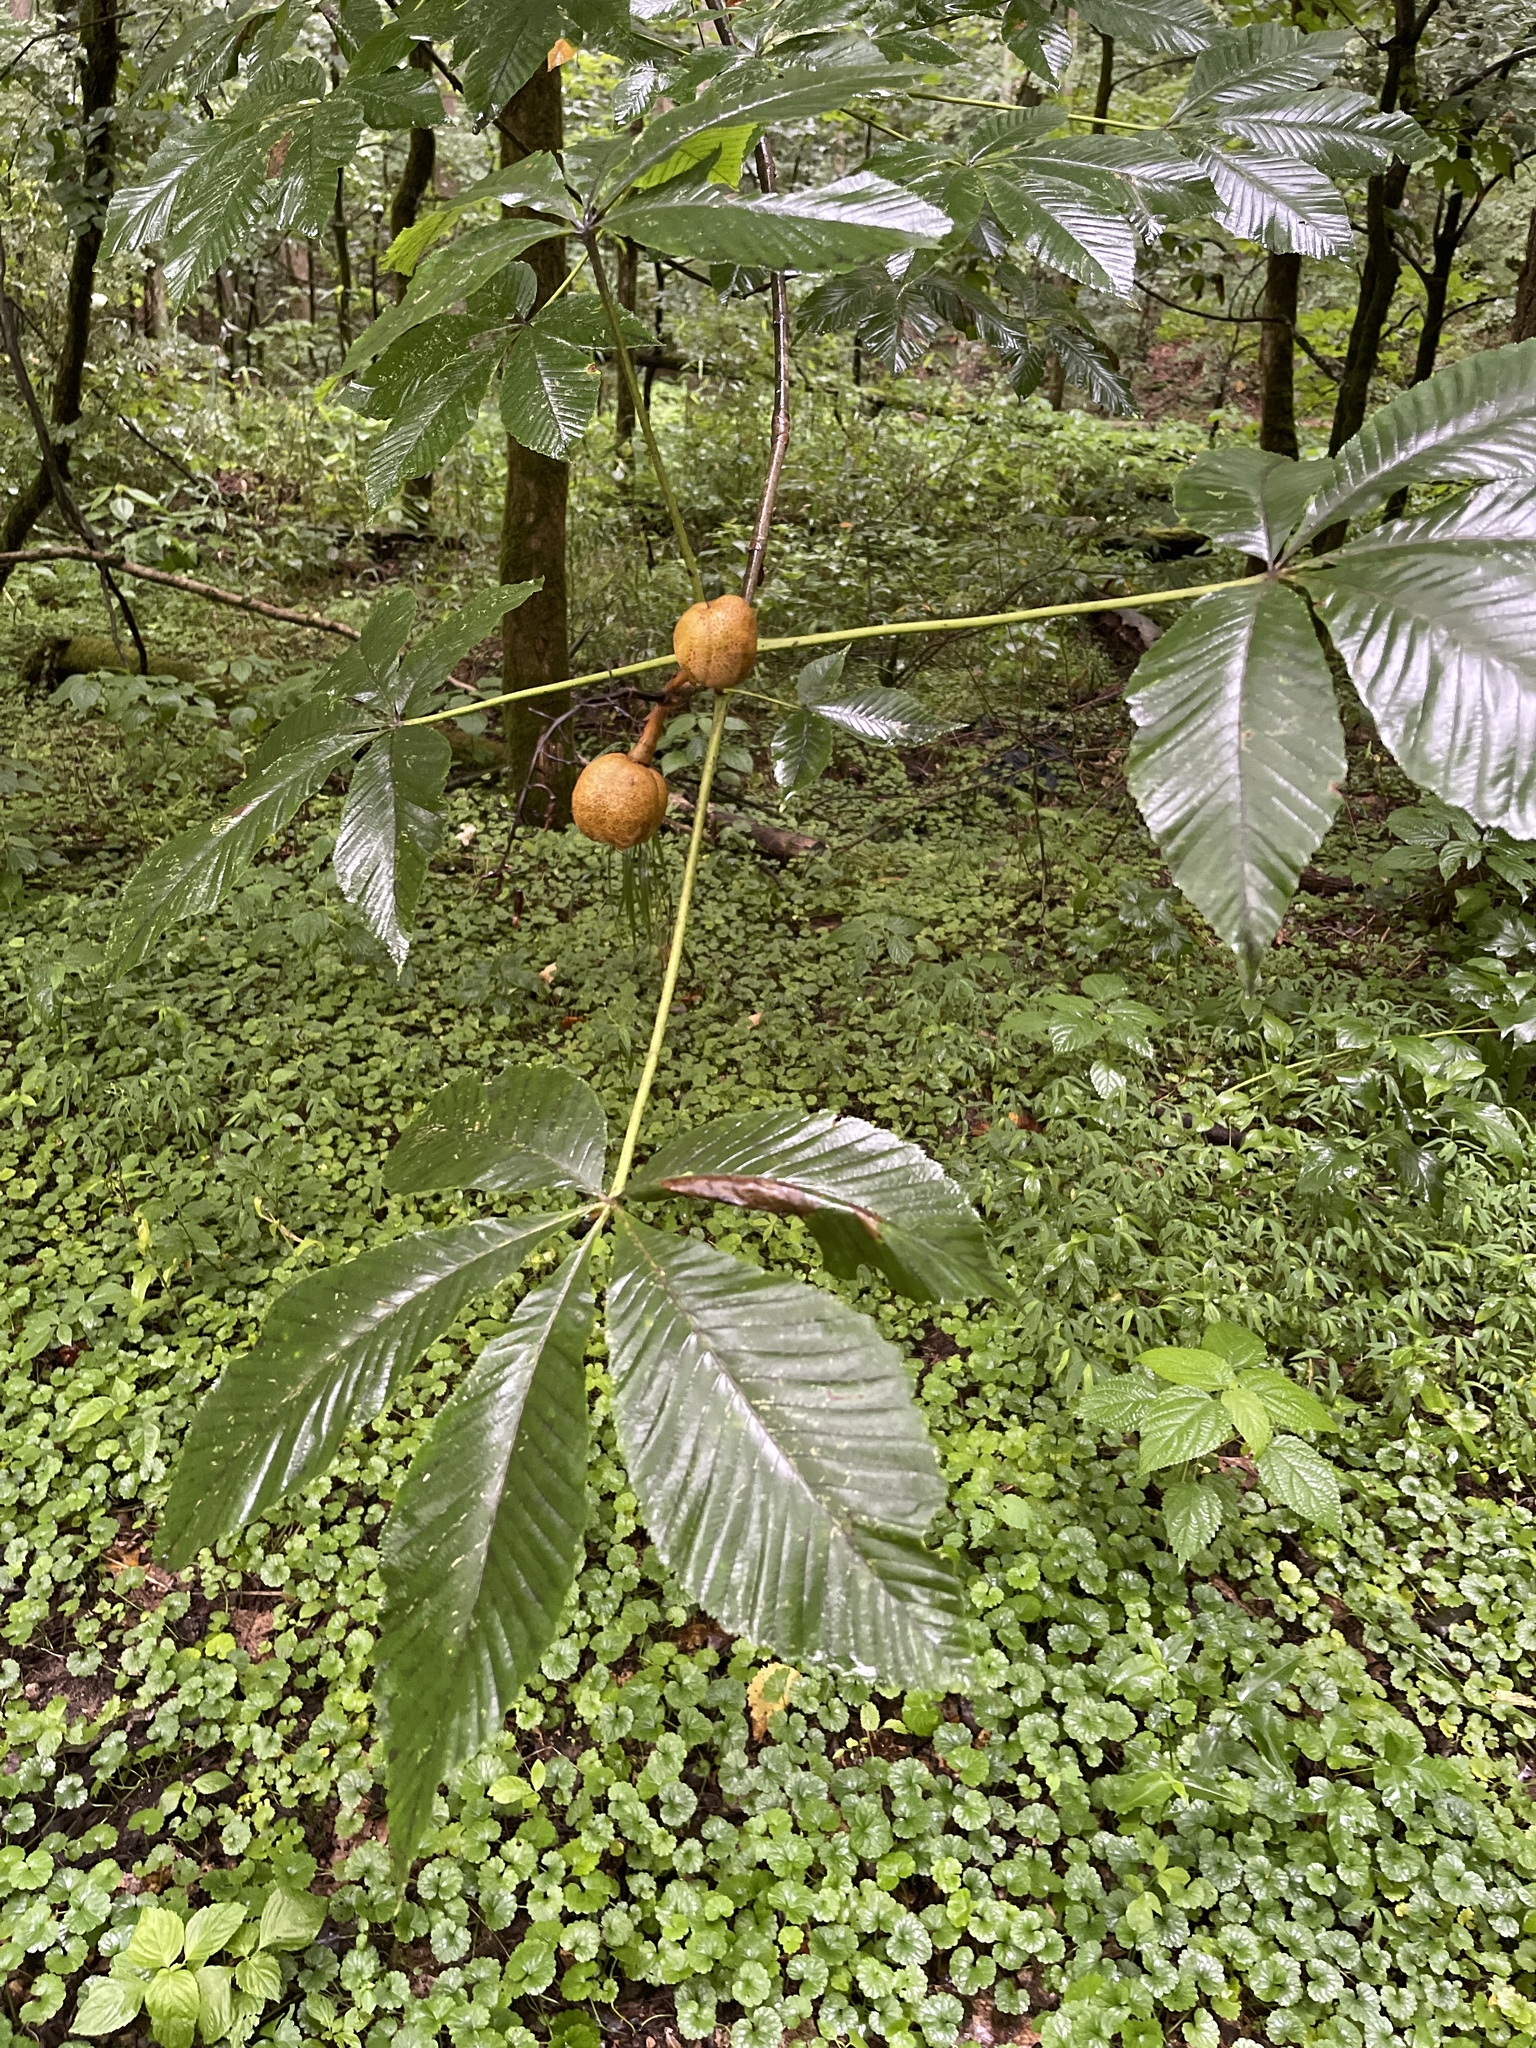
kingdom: Plantae
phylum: Tracheophyta
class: Magnoliopsida
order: Sapindales
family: Sapindaceae
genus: Aesculus
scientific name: Aesculus pavia
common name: Red buckeye
